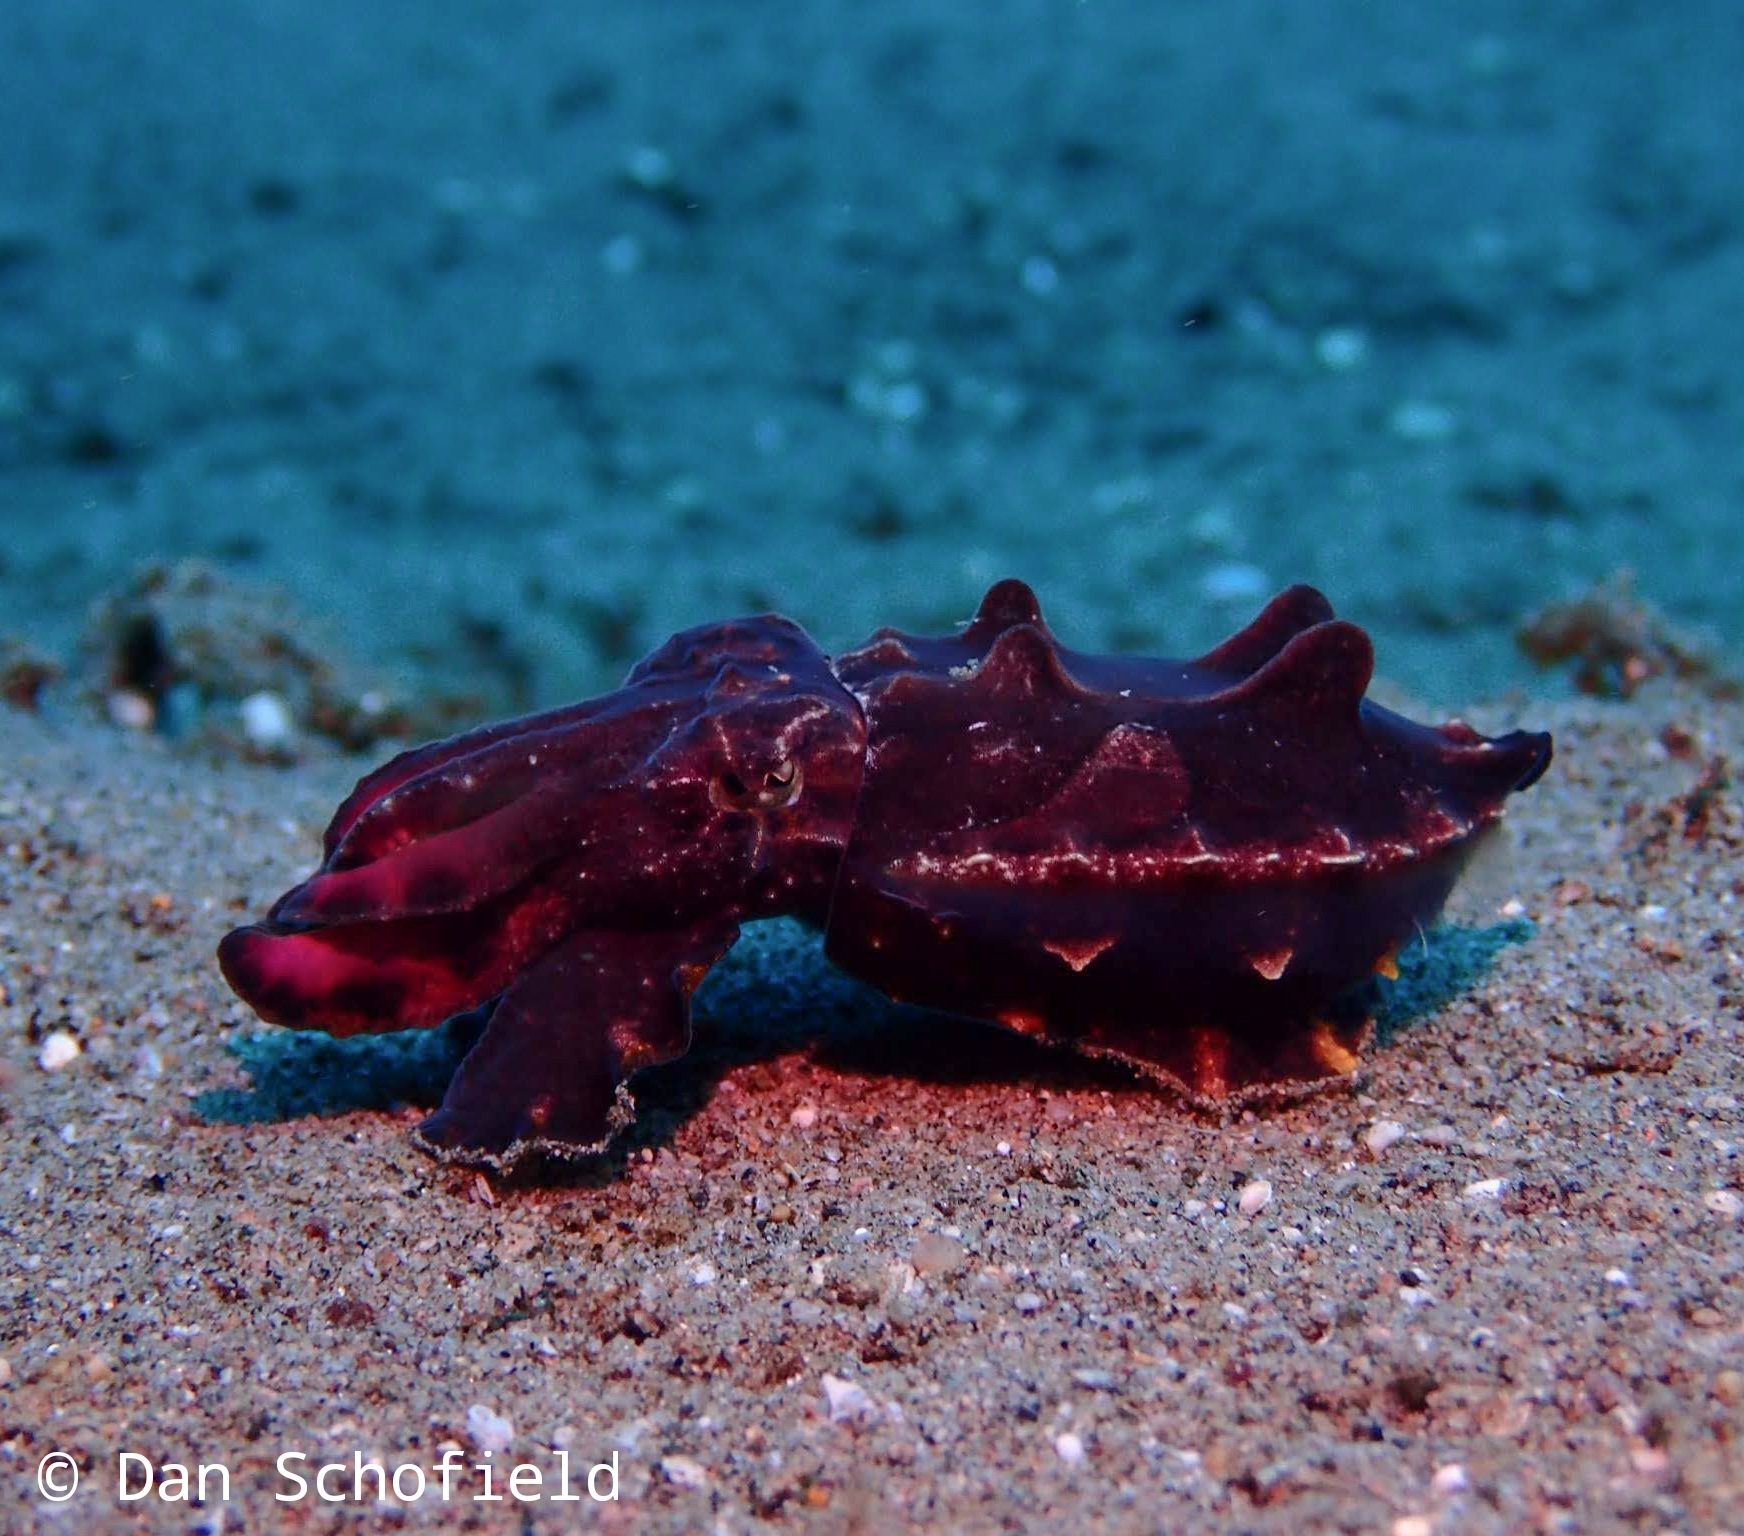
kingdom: Animalia
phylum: Mollusca
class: Cephalopoda
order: Sepiida
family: Sepiidae
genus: Ascarosepion
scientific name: Ascarosepion pfefferi
